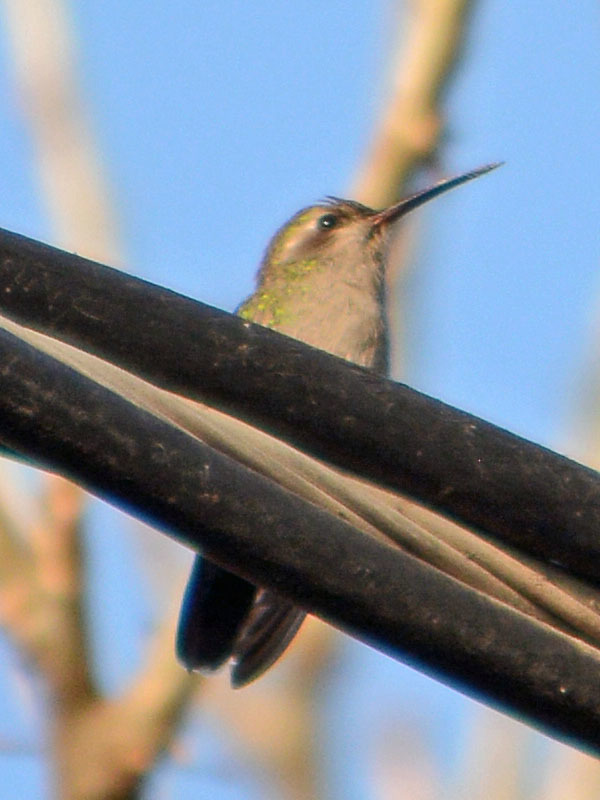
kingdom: Animalia
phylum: Chordata
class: Aves
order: Apodiformes
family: Trochilidae
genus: Cynanthus
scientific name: Cynanthus latirostris
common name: Broad-billed hummingbird
